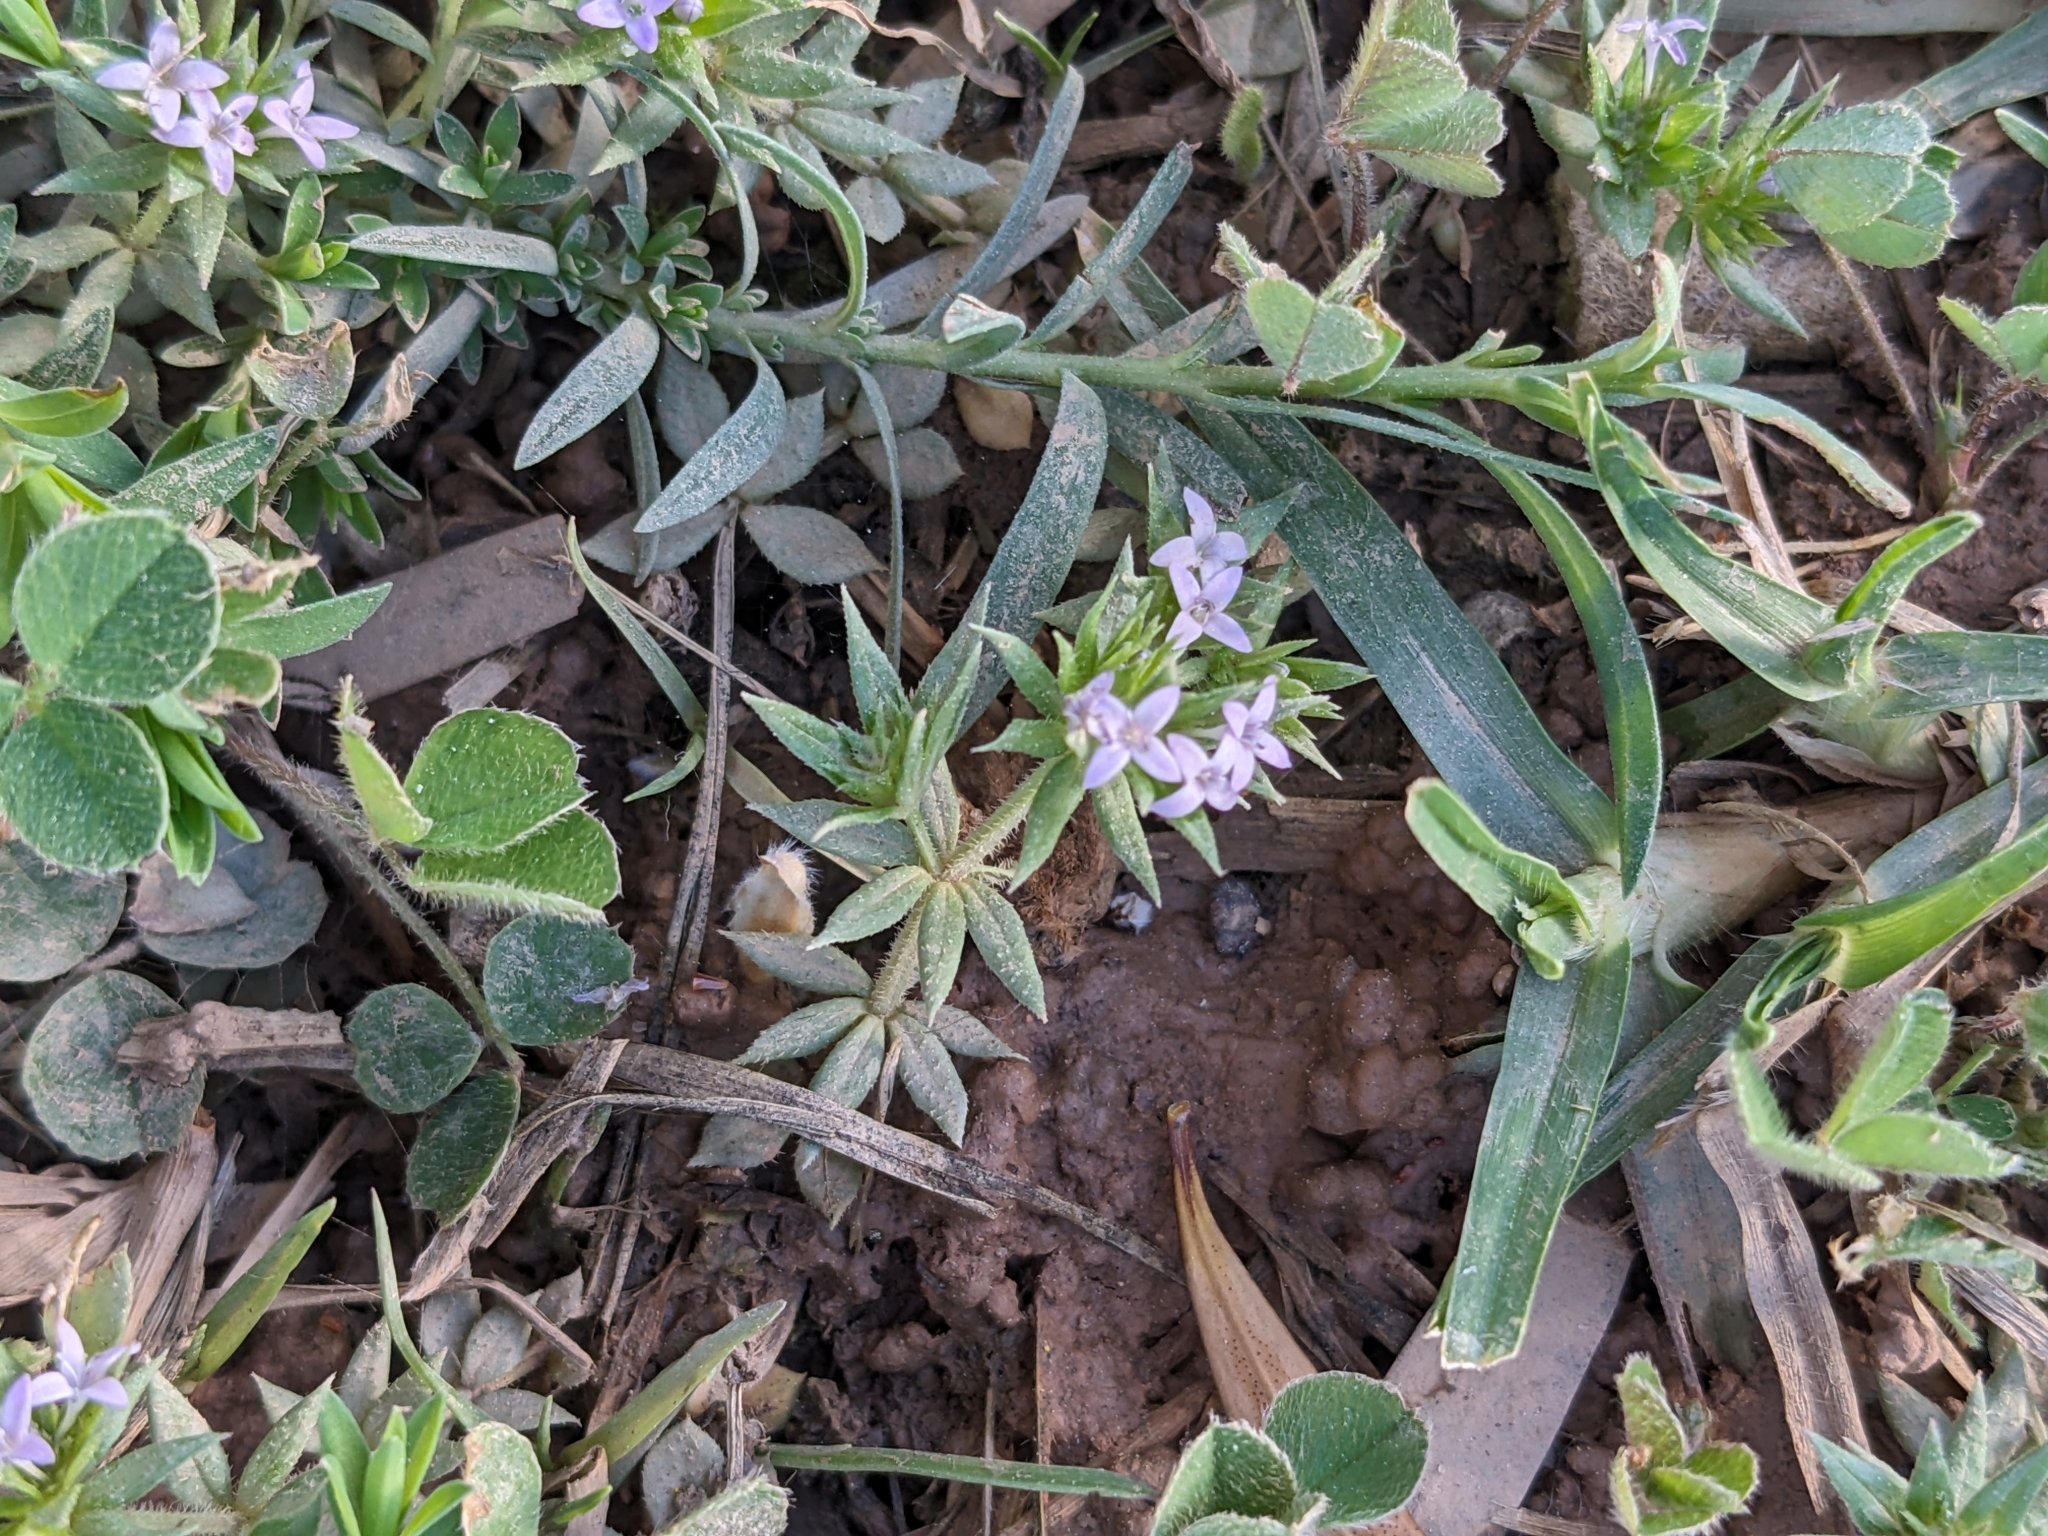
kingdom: Plantae
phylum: Tracheophyta
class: Magnoliopsida
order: Gentianales
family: Rubiaceae
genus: Sherardia
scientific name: Sherardia arvensis
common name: Field madder
